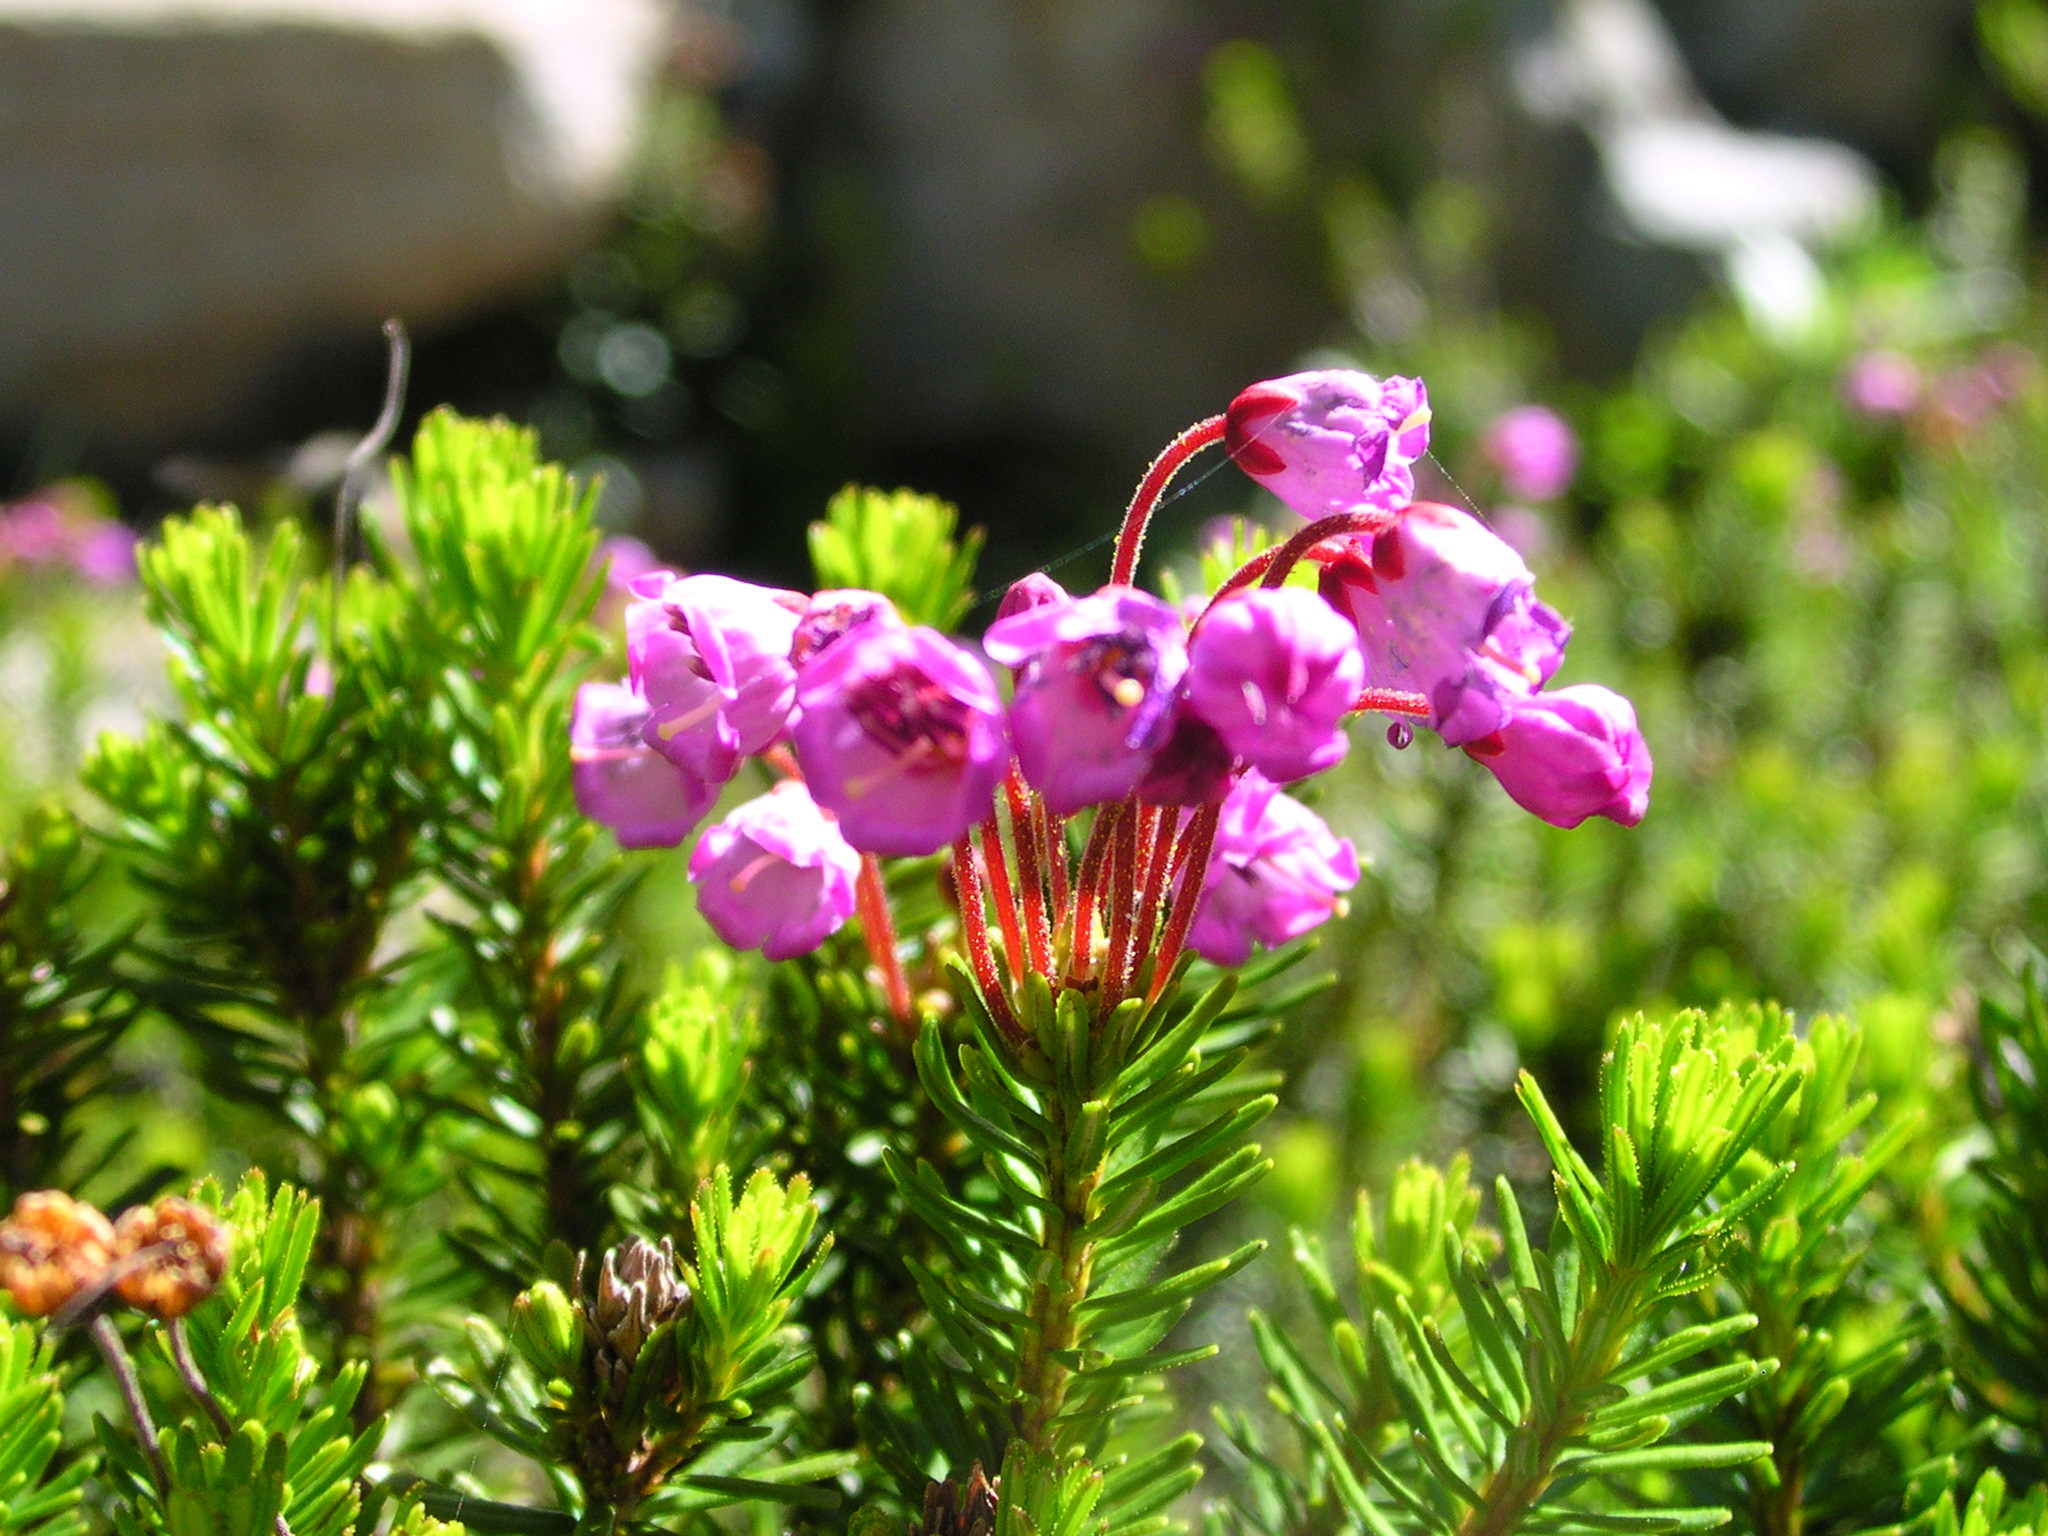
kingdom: Plantae
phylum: Tracheophyta
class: Magnoliopsida
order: Ericales
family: Ericaceae
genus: Phyllodoce
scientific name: Phyllodoce empetriformis
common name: Pink mountain heather
